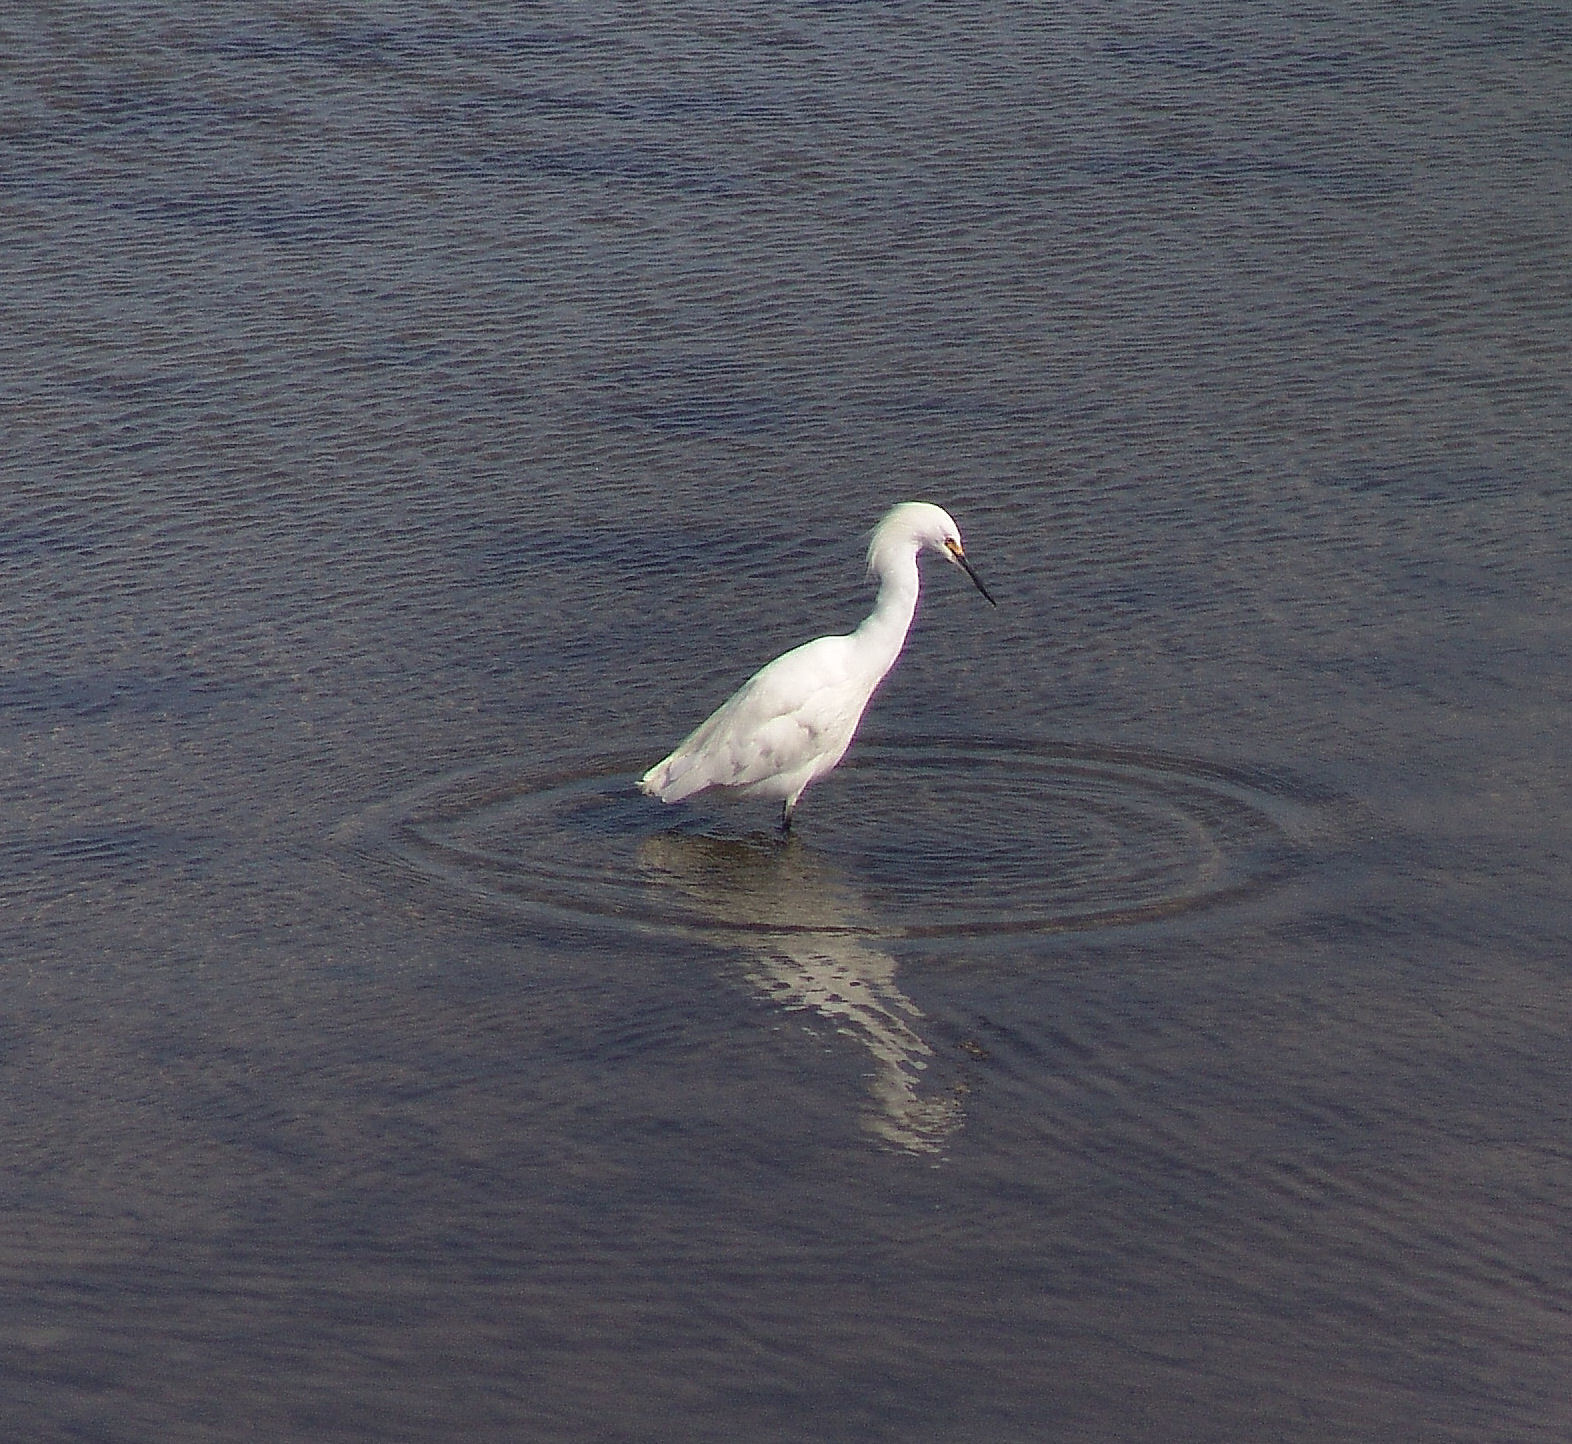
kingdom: Animalia
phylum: Chordata
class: Aves
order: Pelecaniformes
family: Ardeidae
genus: Egretta
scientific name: Egretta thula
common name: Snowy egret
